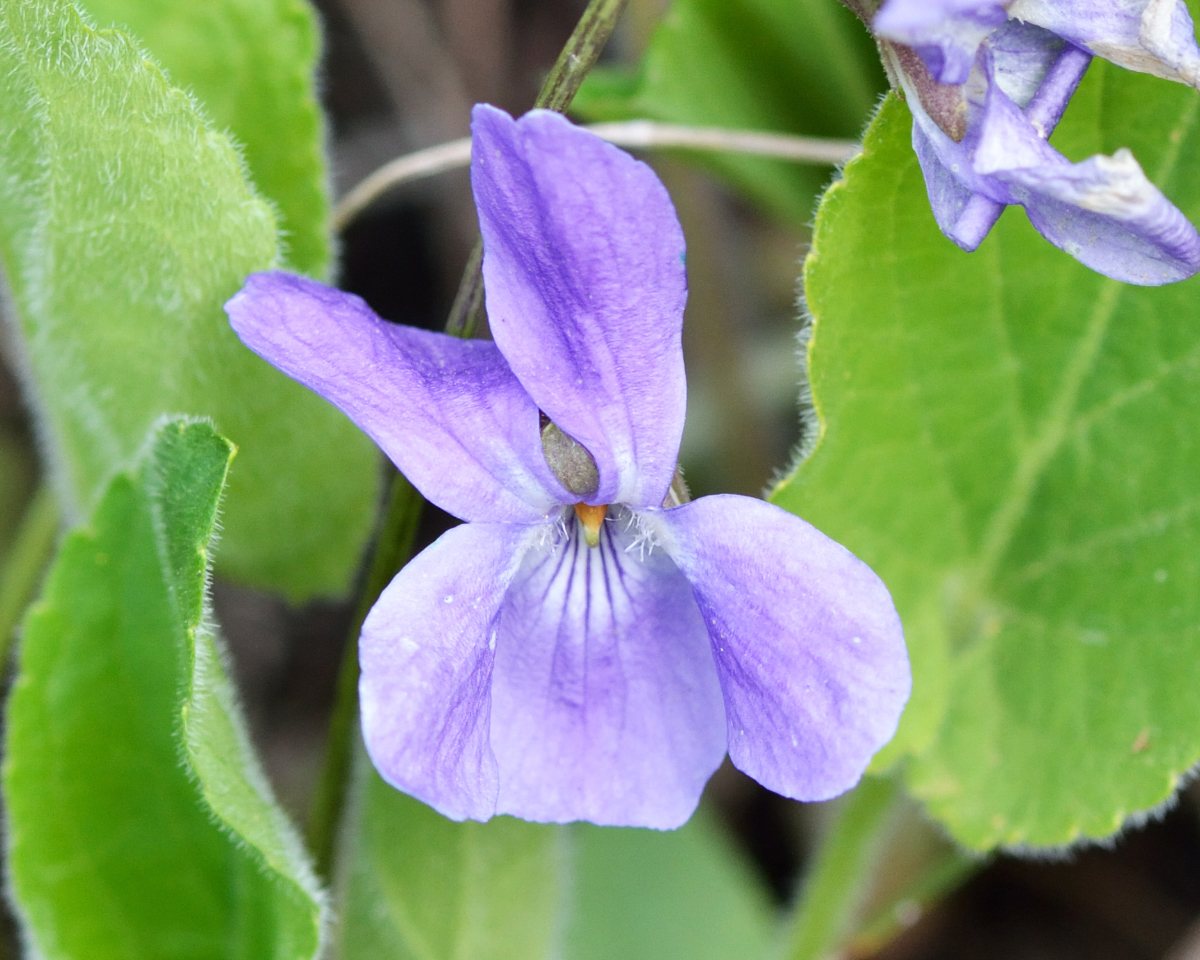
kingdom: Plantae
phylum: Tracheophyta
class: Magnoliopsida
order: Malpighiales
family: Violaceae
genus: Viola
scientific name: Viola hirta
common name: Hairy violet
